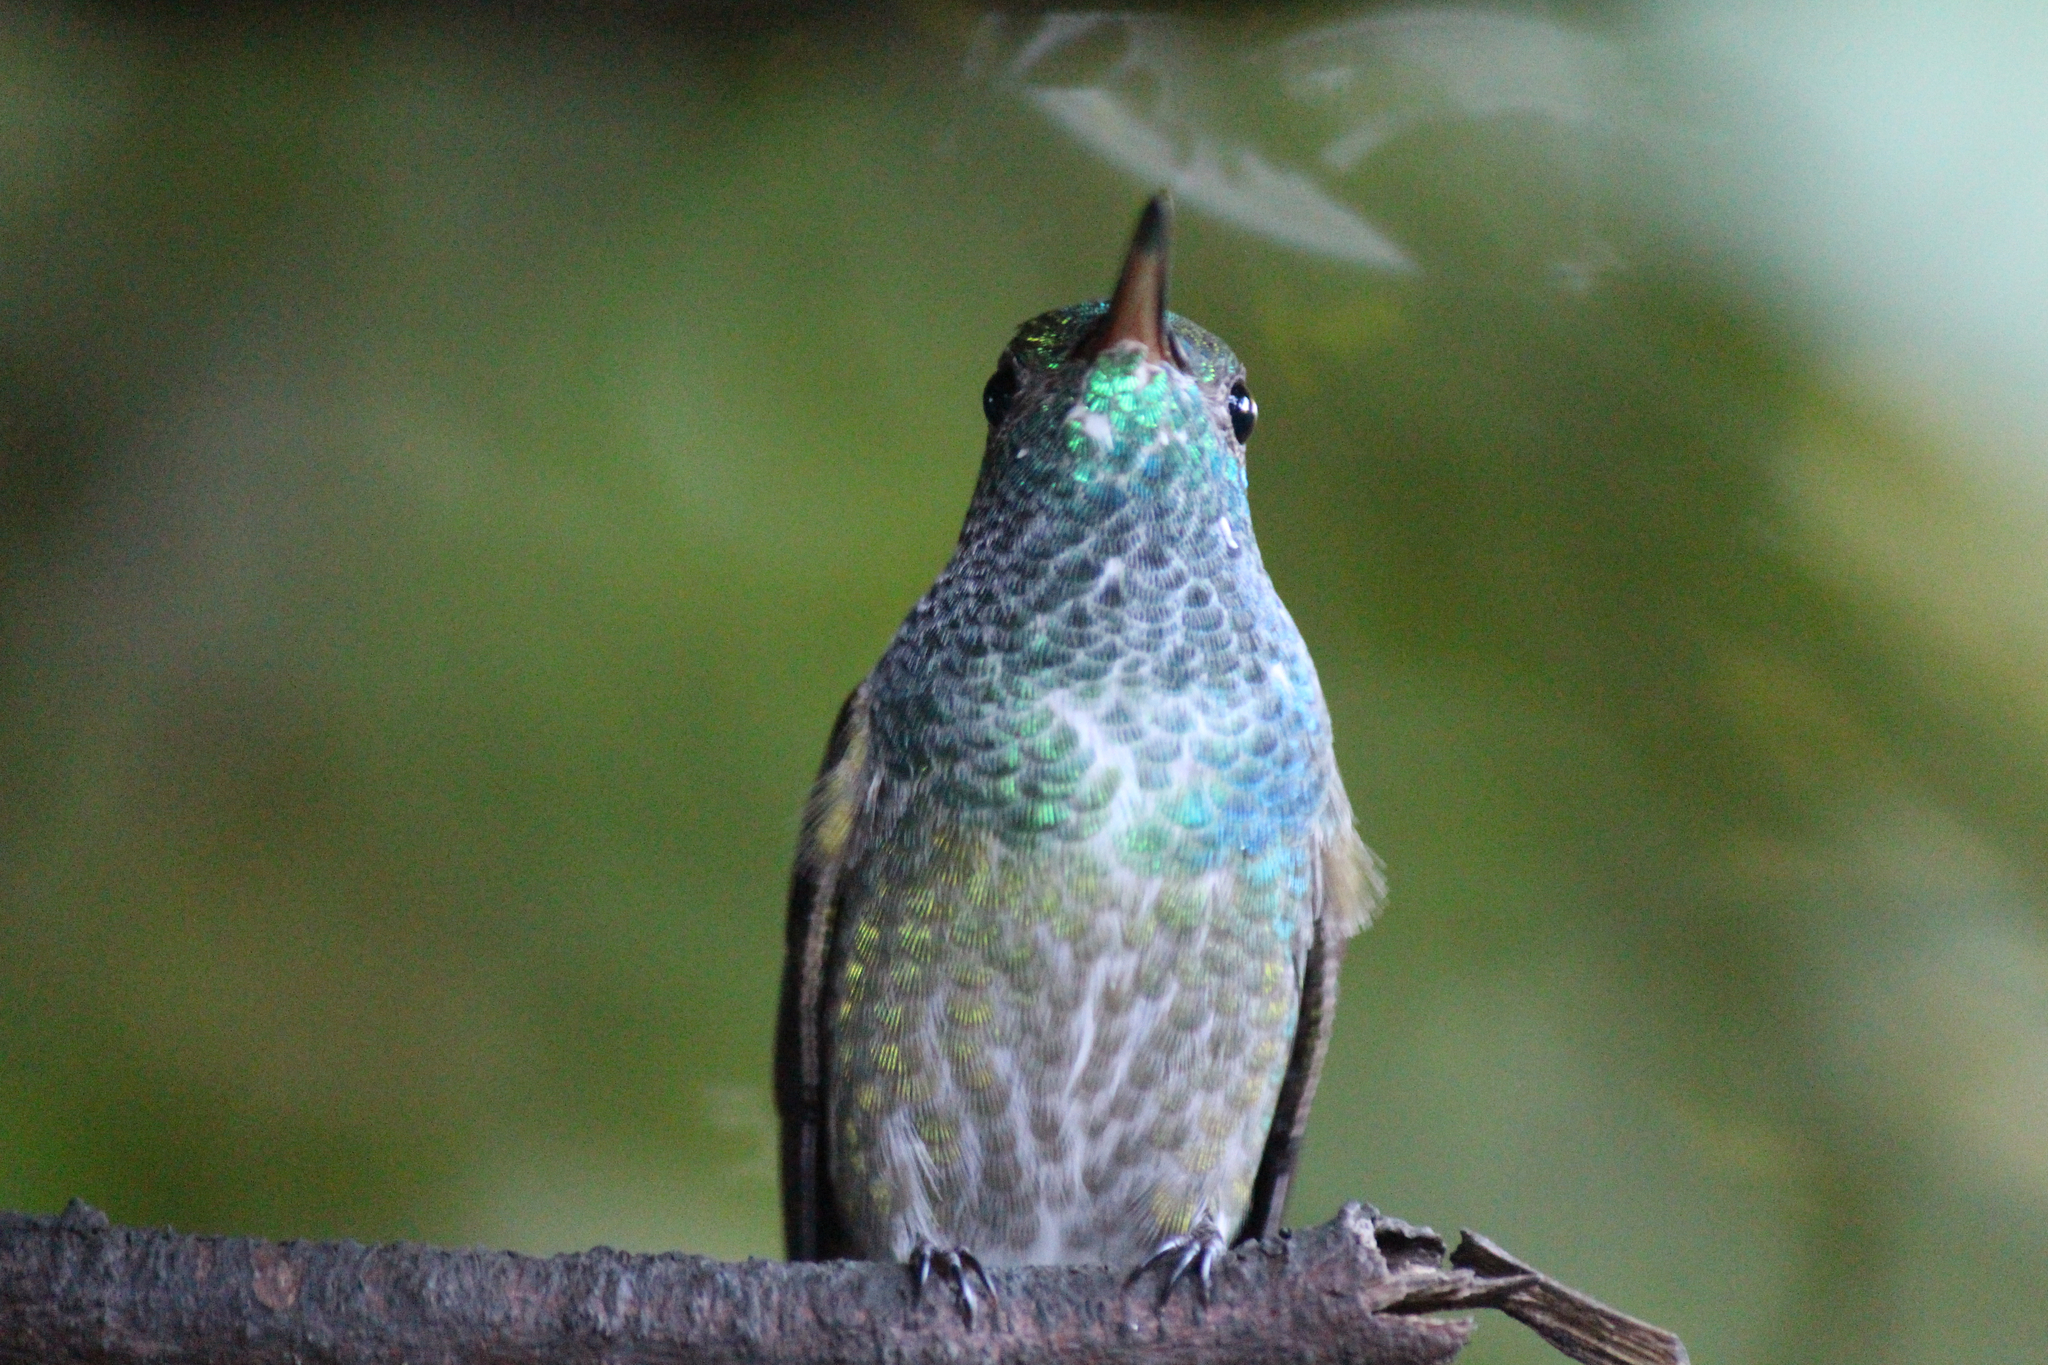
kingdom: Animalia
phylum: Chordata
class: Aves
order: Apodiformes
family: Trochilidae
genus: Chrysuronia
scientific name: Chrysuronia versicolor
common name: Versicolored emerald
